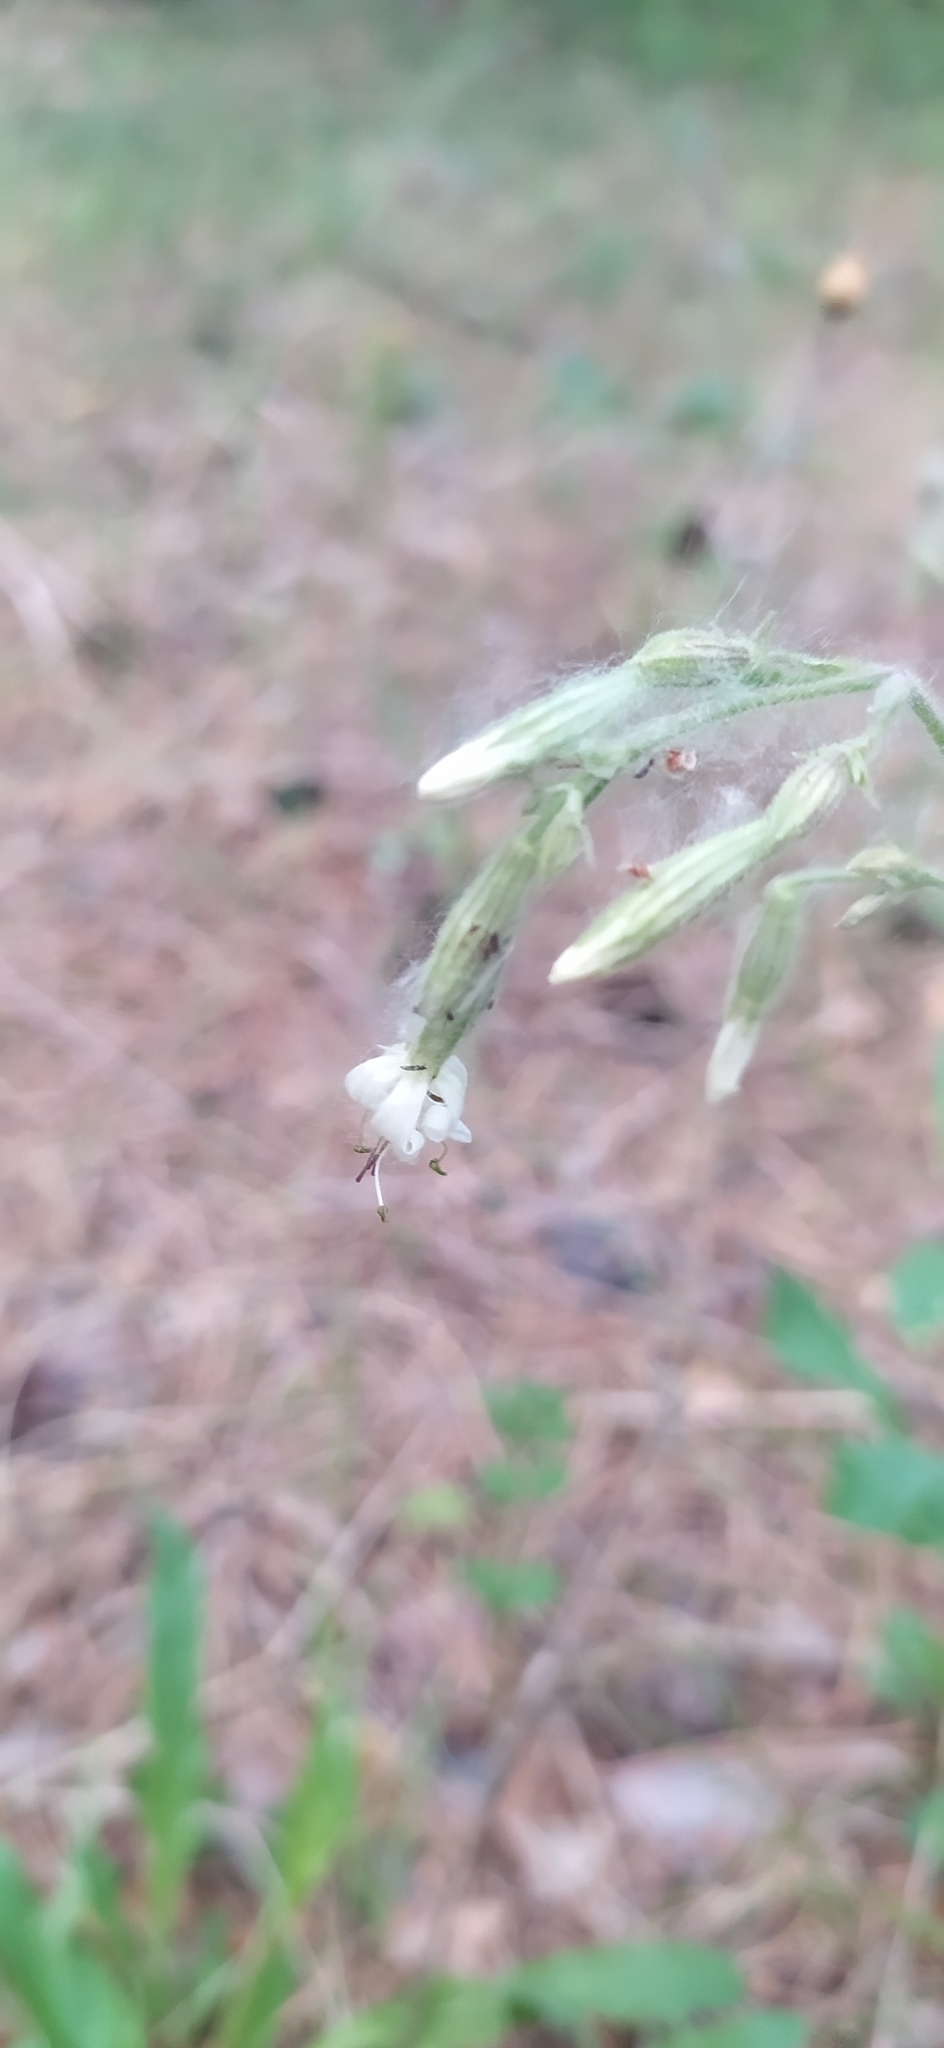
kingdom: Plantae
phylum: Tracheophyta
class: Magnoliopsida
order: Caryophyllales
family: Caryophyllaceae
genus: Silene
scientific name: Silene nutans
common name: Nottingham catchfly
